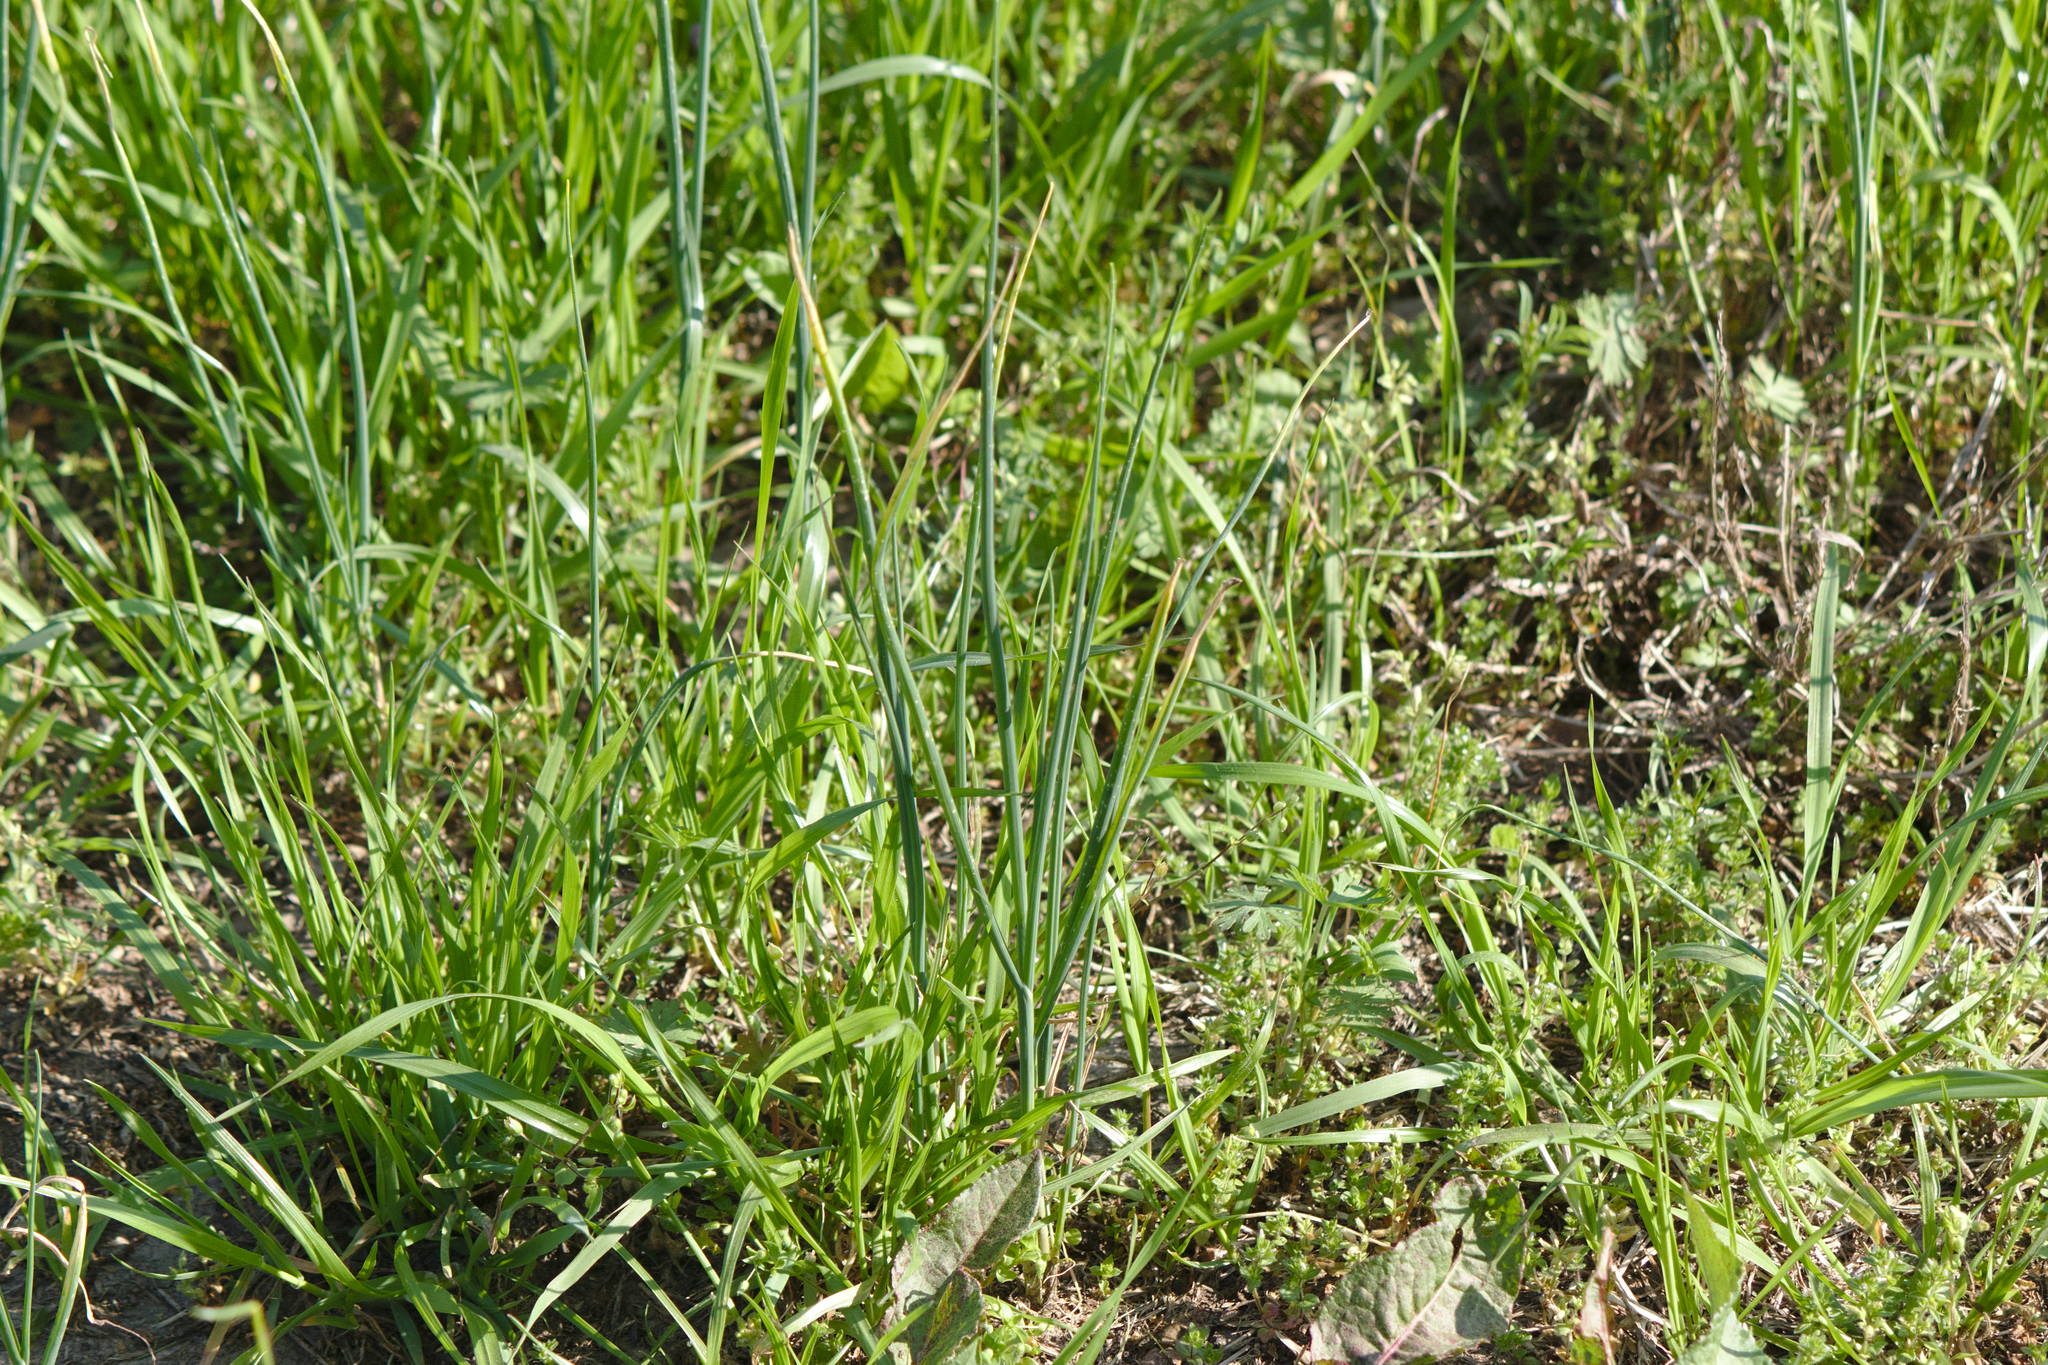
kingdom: Plantae
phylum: Tracheophyta
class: Liliopsida
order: Asparagales
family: Amaryllidaceae
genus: Allium
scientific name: Allium vineale
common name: Crow garlic
